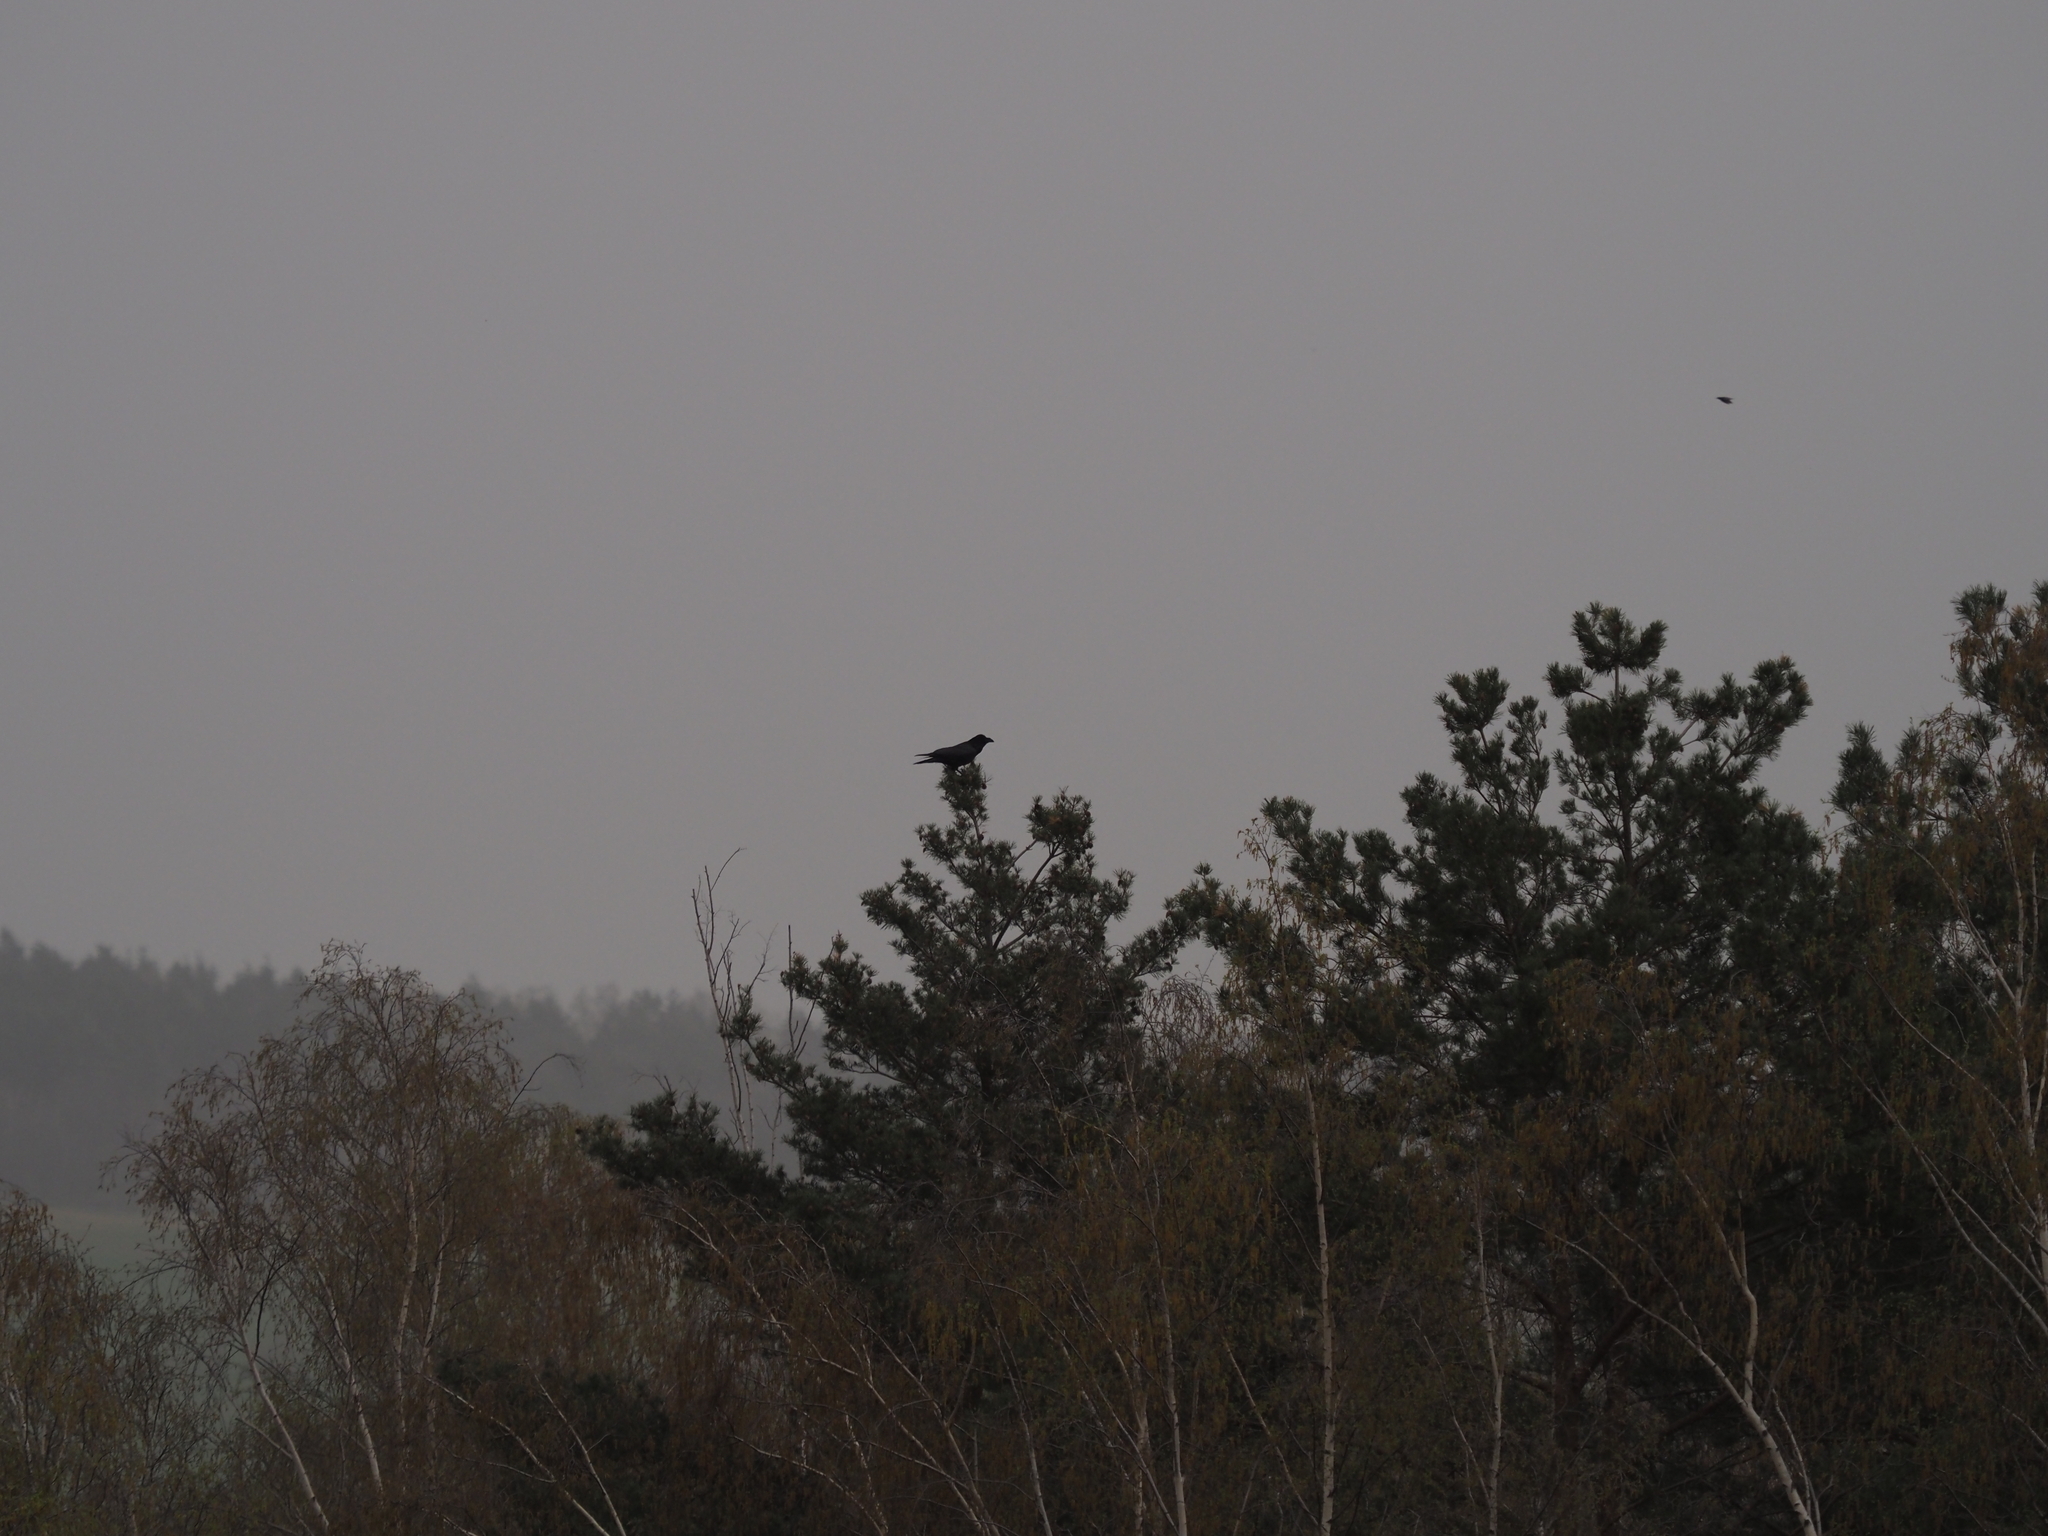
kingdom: Animalia
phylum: Chordata
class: Aves
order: Passeriformes
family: Corvidae
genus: Corvus
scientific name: Corvus corax
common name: Common raven
